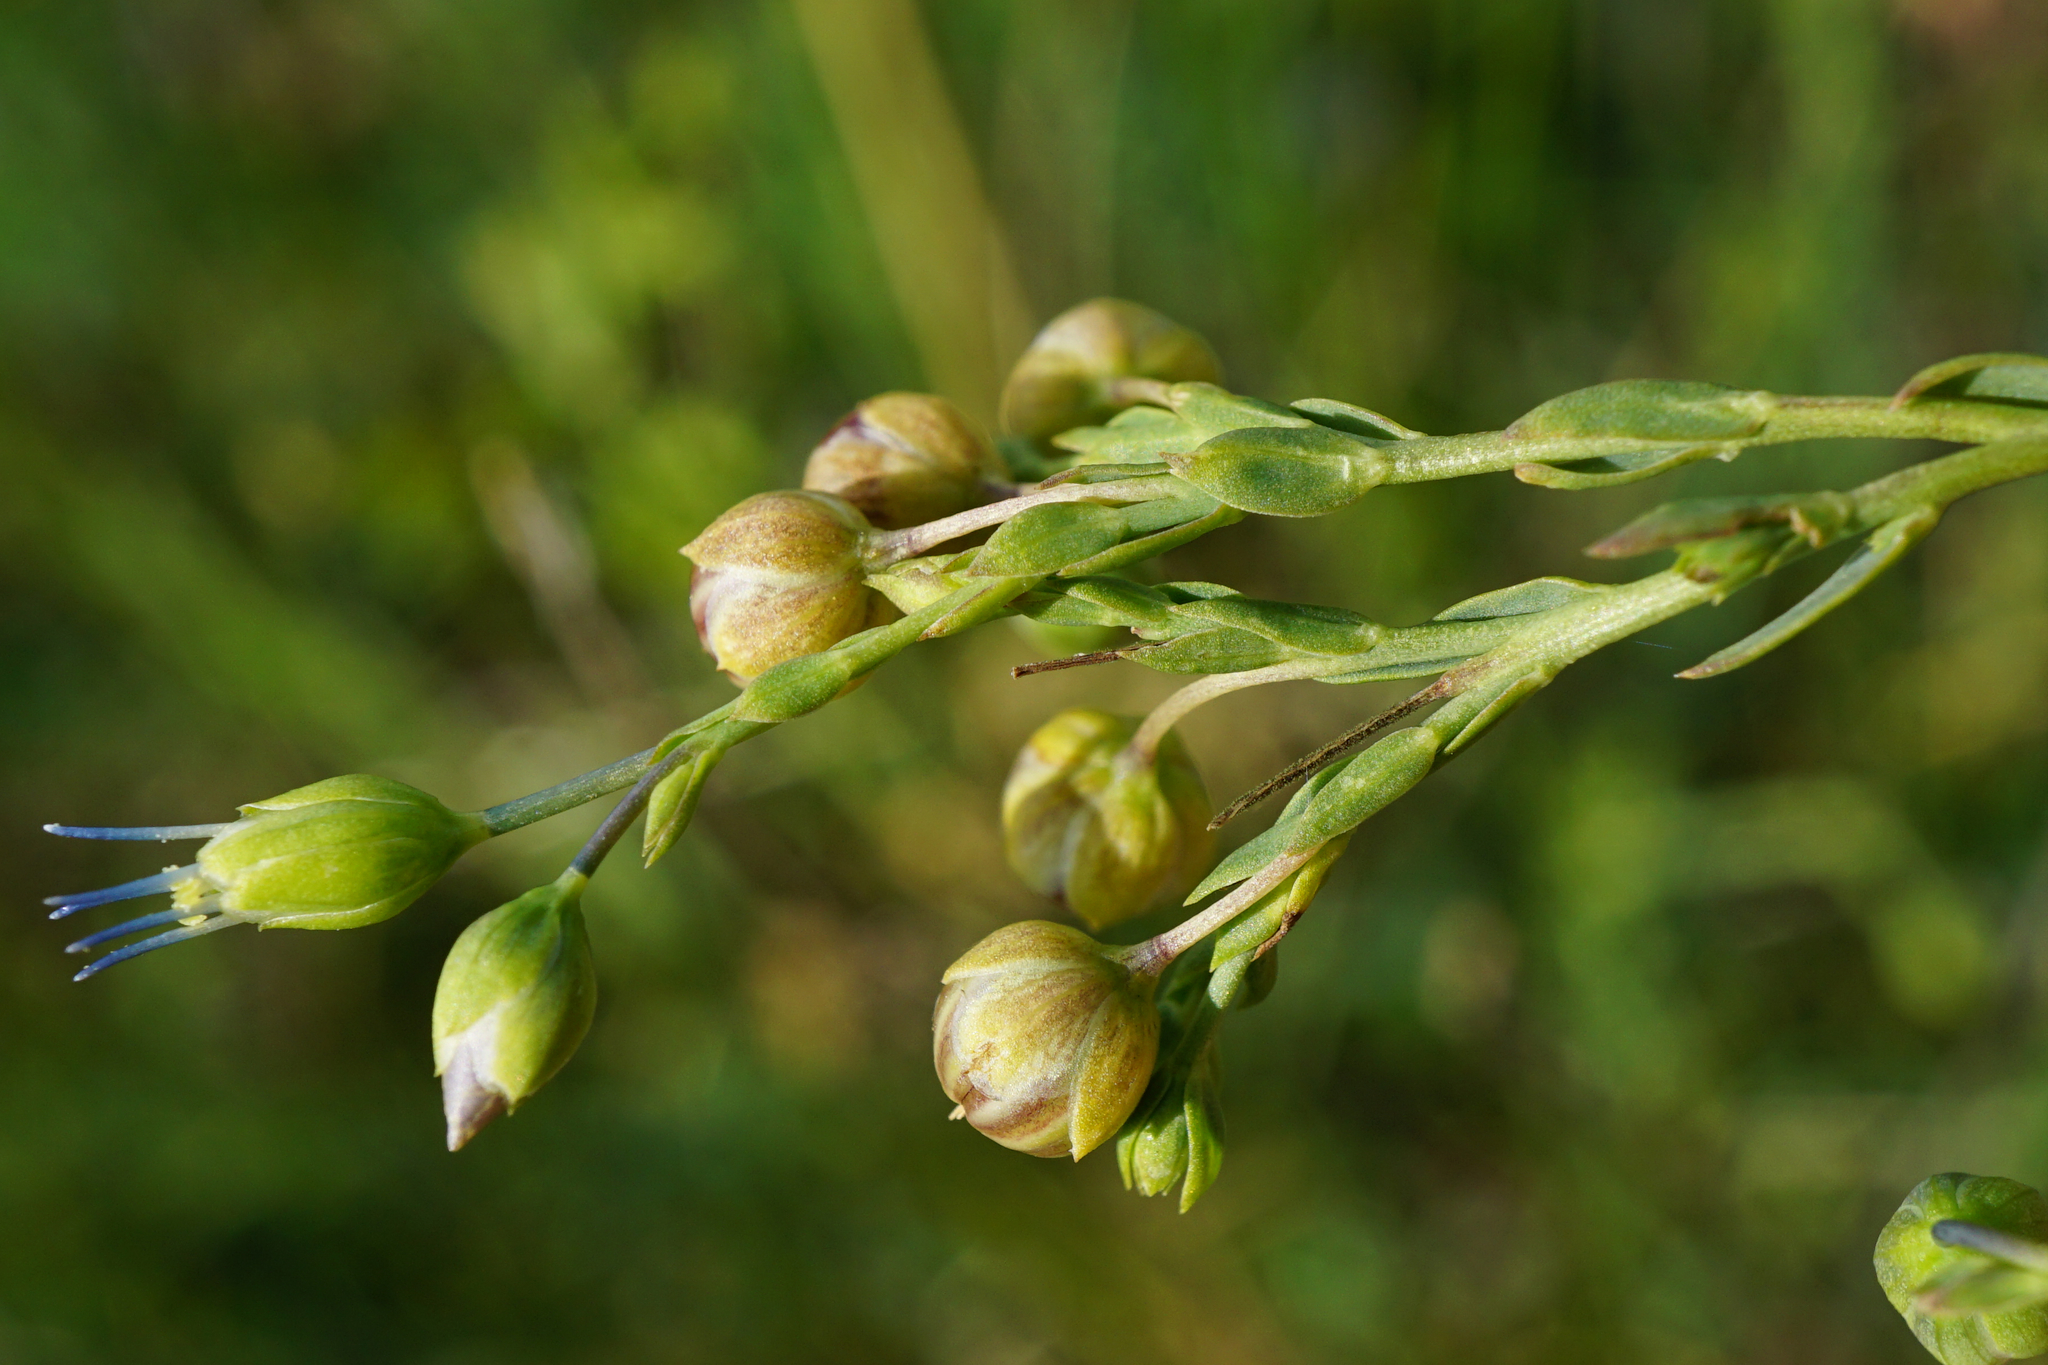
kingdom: Plantae
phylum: Tracheophyta
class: Magnoliopsida
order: Malpighiales
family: Linaceae
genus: Linum
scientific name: Linum austriacum
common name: Austrian flax
